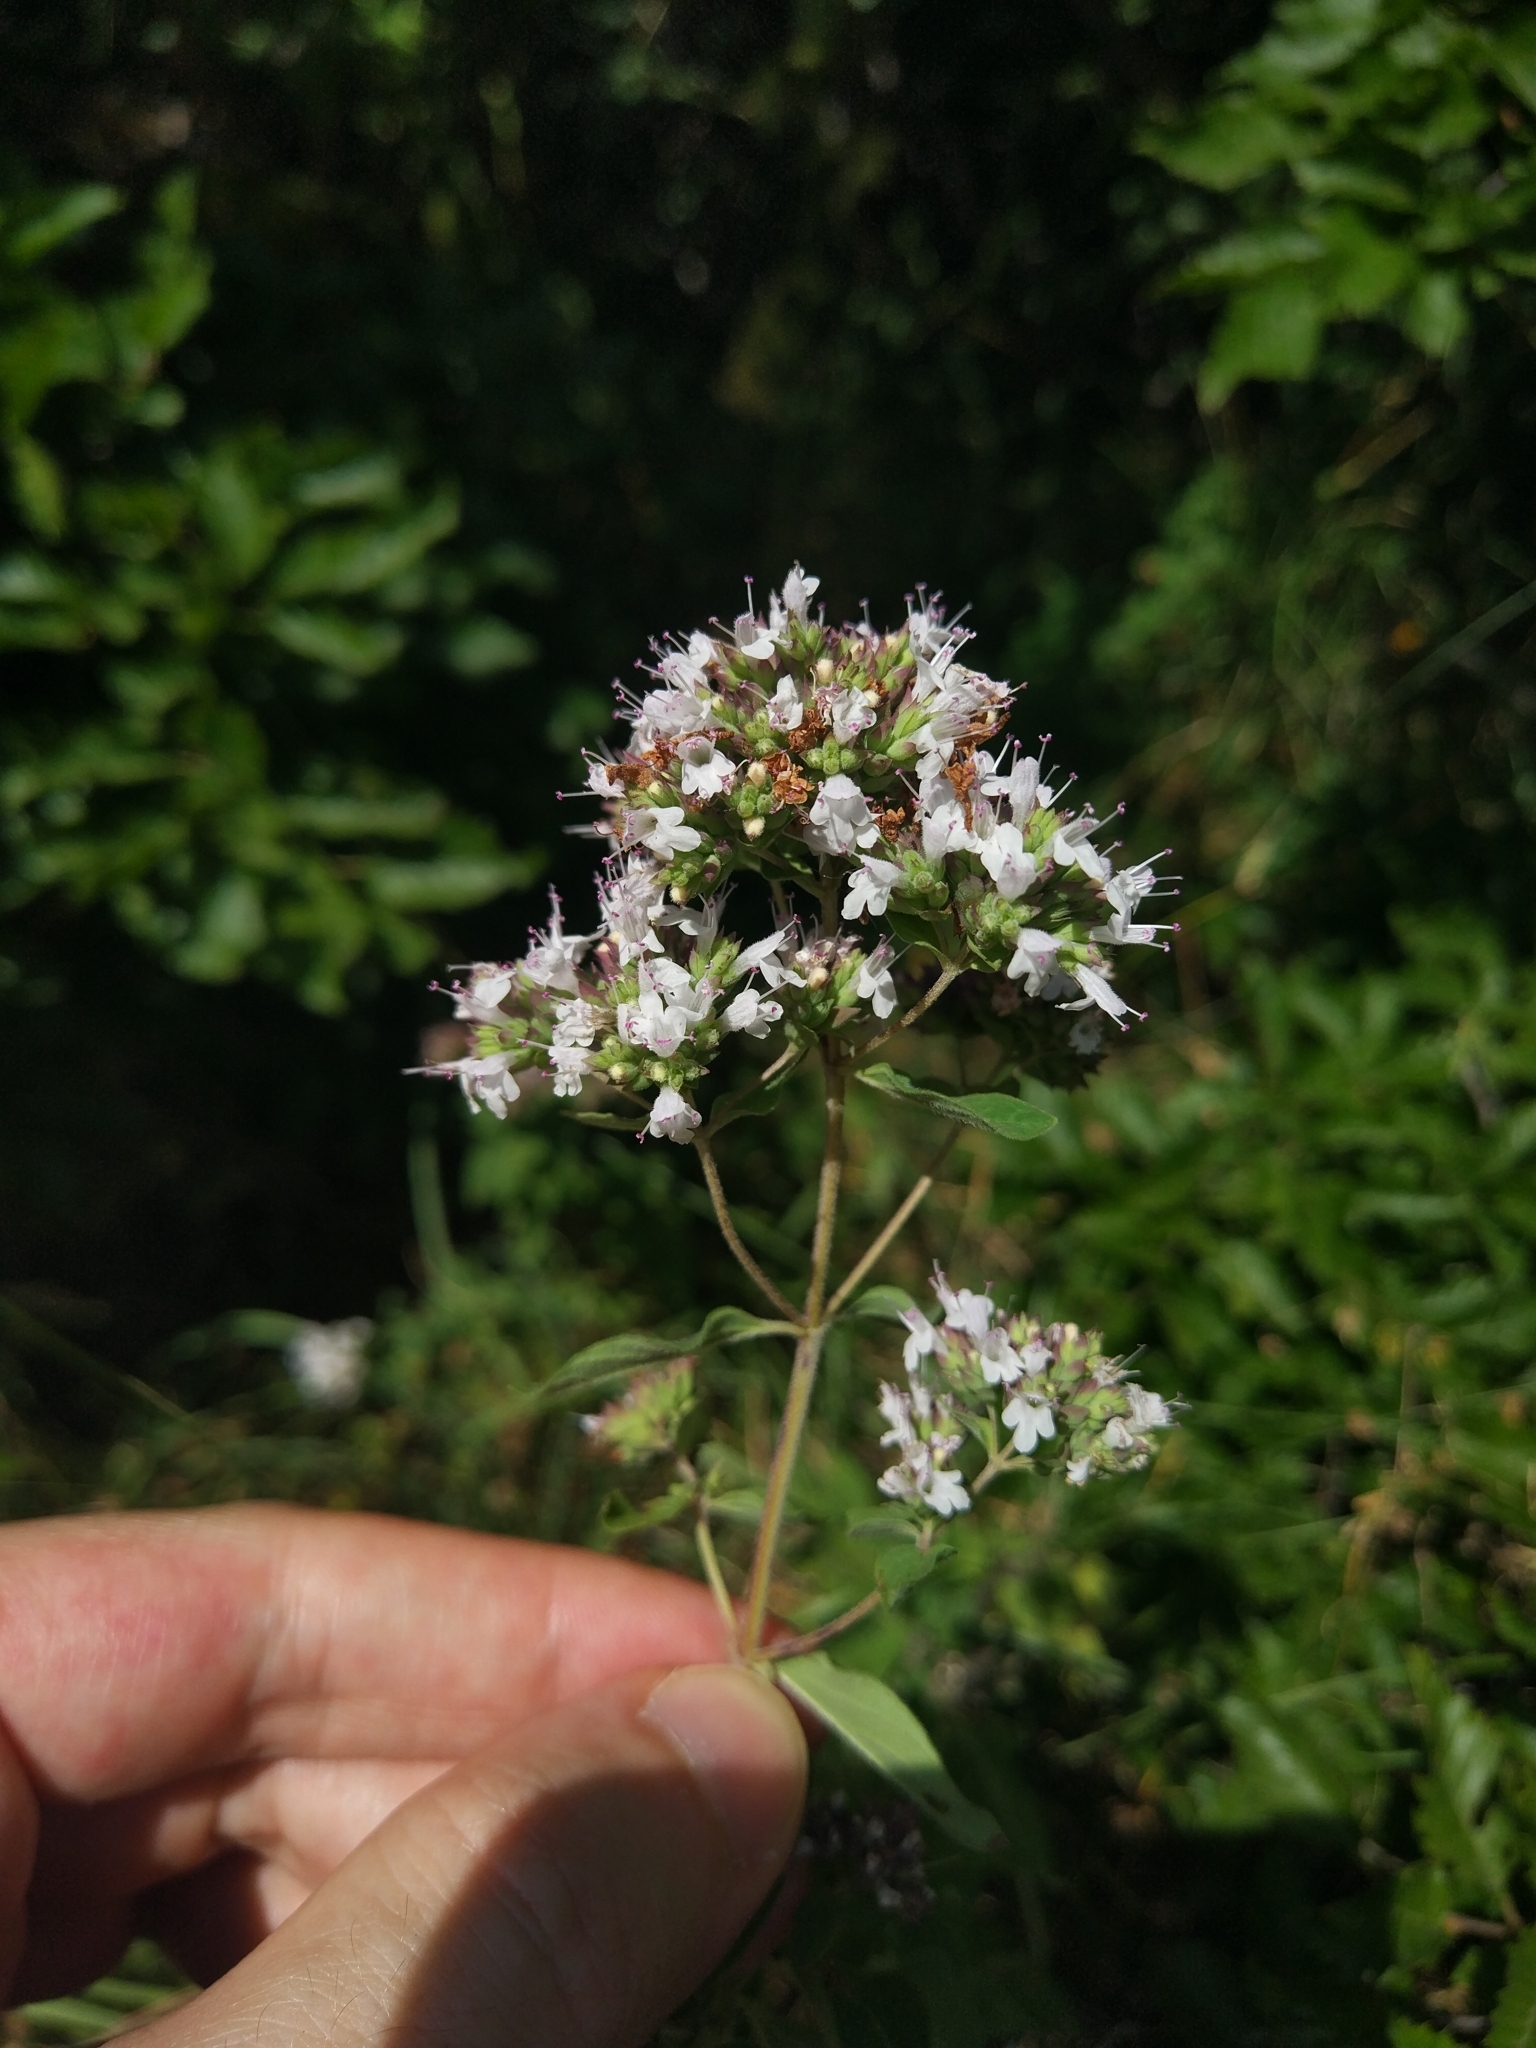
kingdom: Plantae
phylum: Tracheophyta
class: Magnoliopsida
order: Lamiales
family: Lamiaceae
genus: Origanum
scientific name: Origanum vulgare
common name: Wild marjoram
